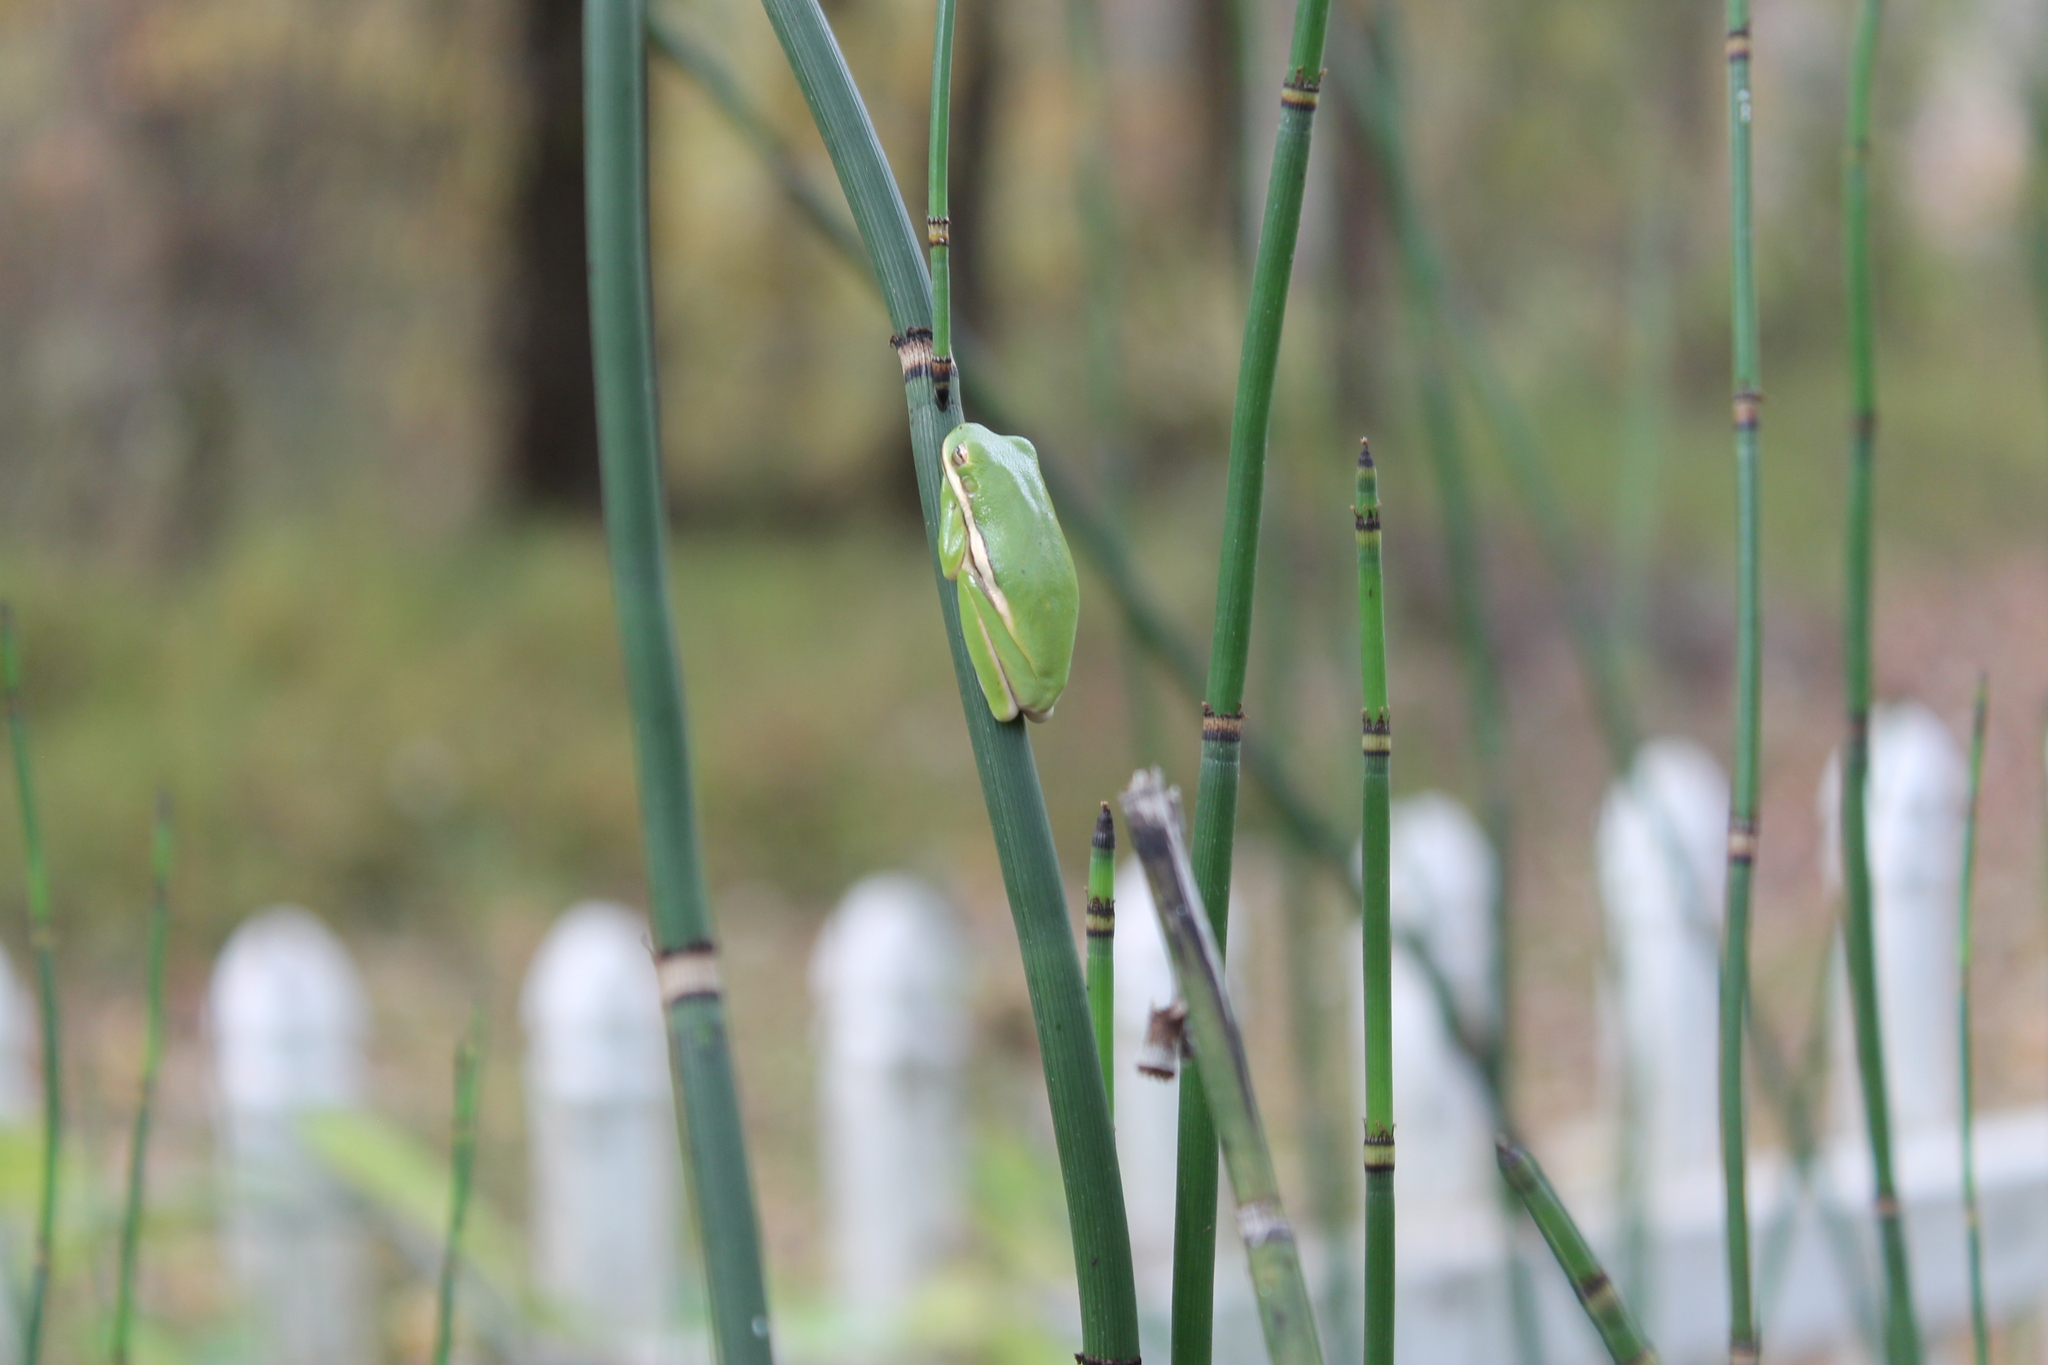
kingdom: Animalia
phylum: Chordata
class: Amphibia
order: Anura
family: Hylidae
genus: Dryophytes
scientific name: Dryophytes cinereus
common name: Green treefrog
